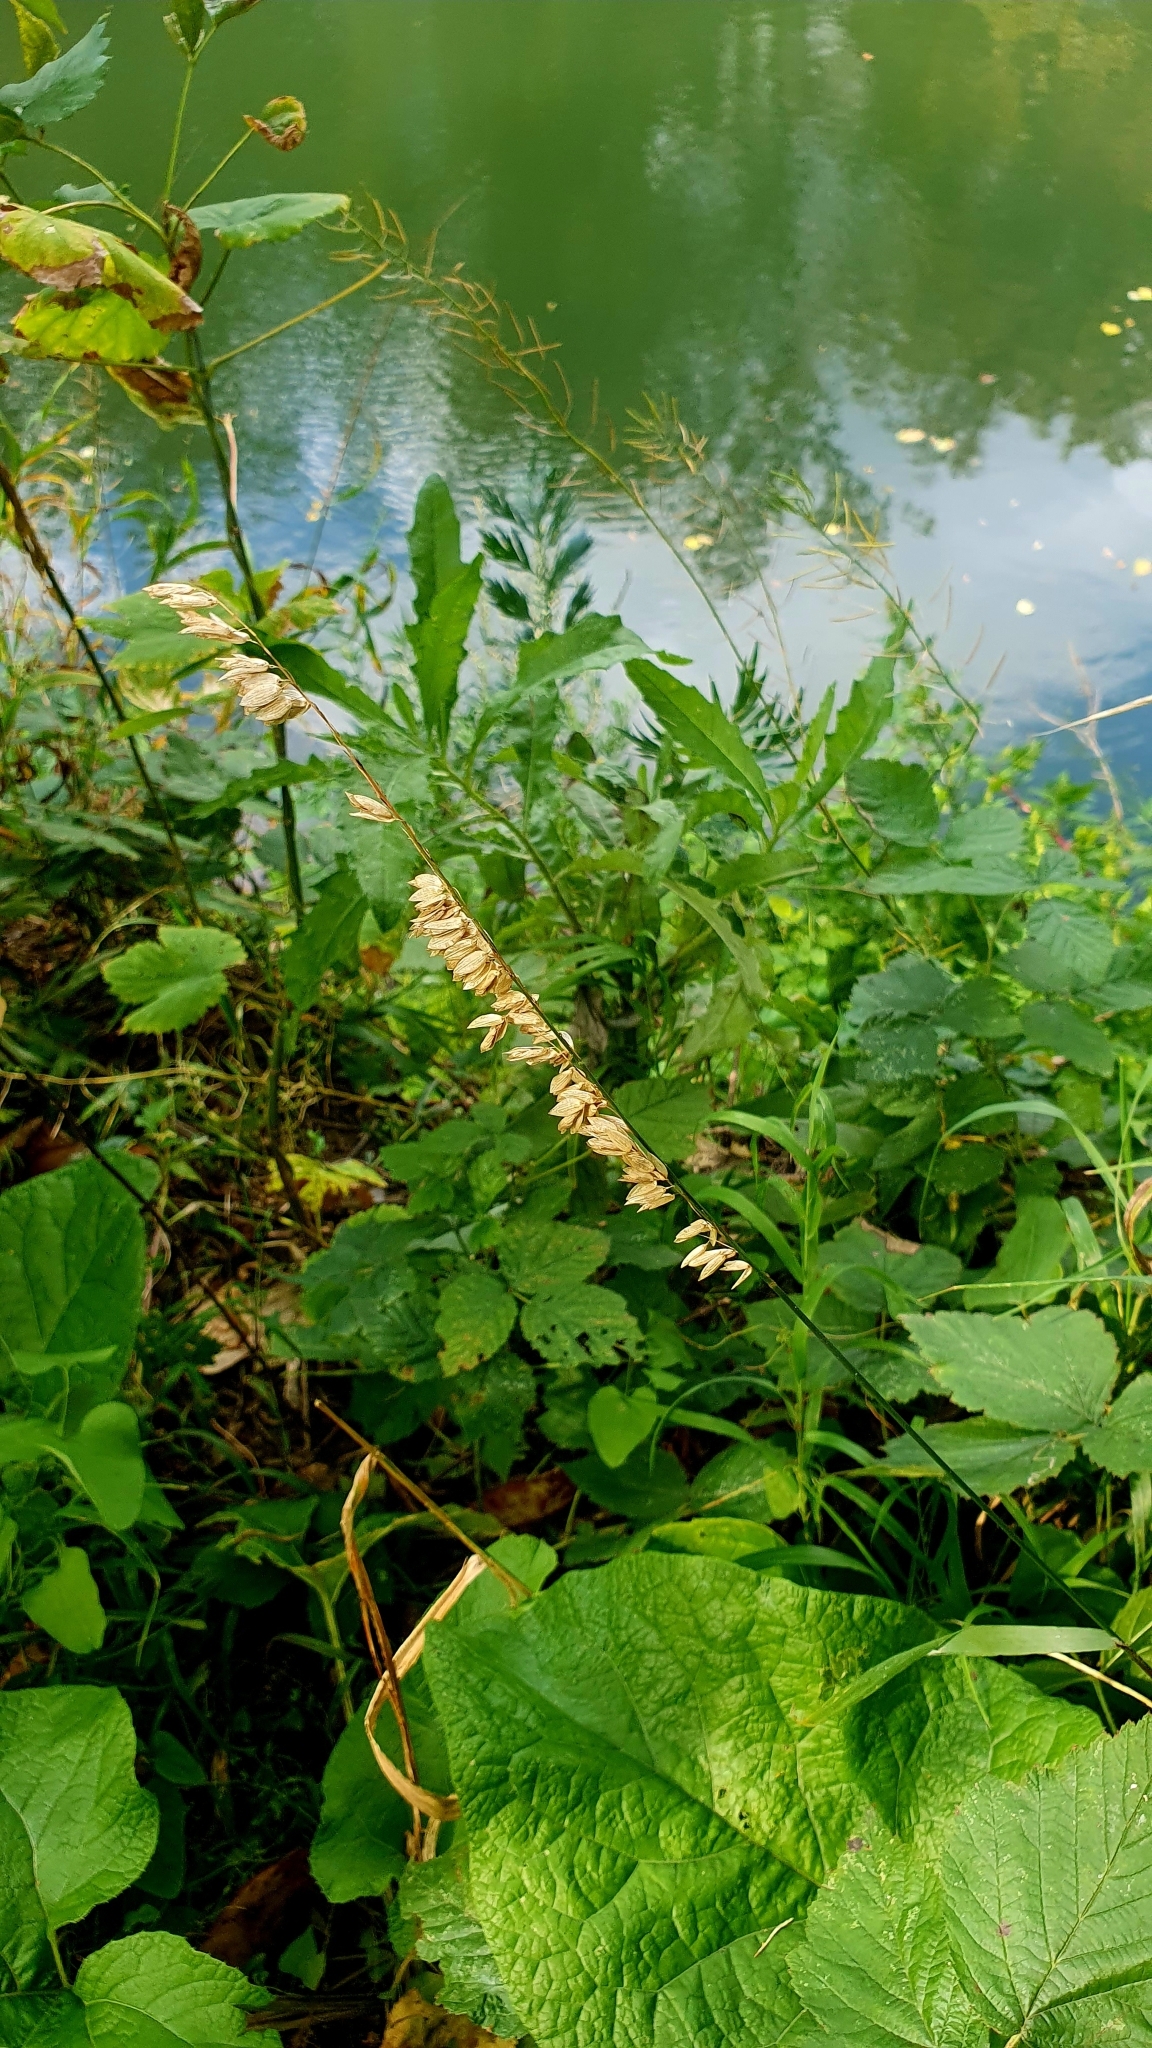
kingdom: Plantae
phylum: Tracheophyta
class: Liliopsida
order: Poales
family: Poaceae
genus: Melica
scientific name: Melica altissima
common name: Siberian melicgrass
